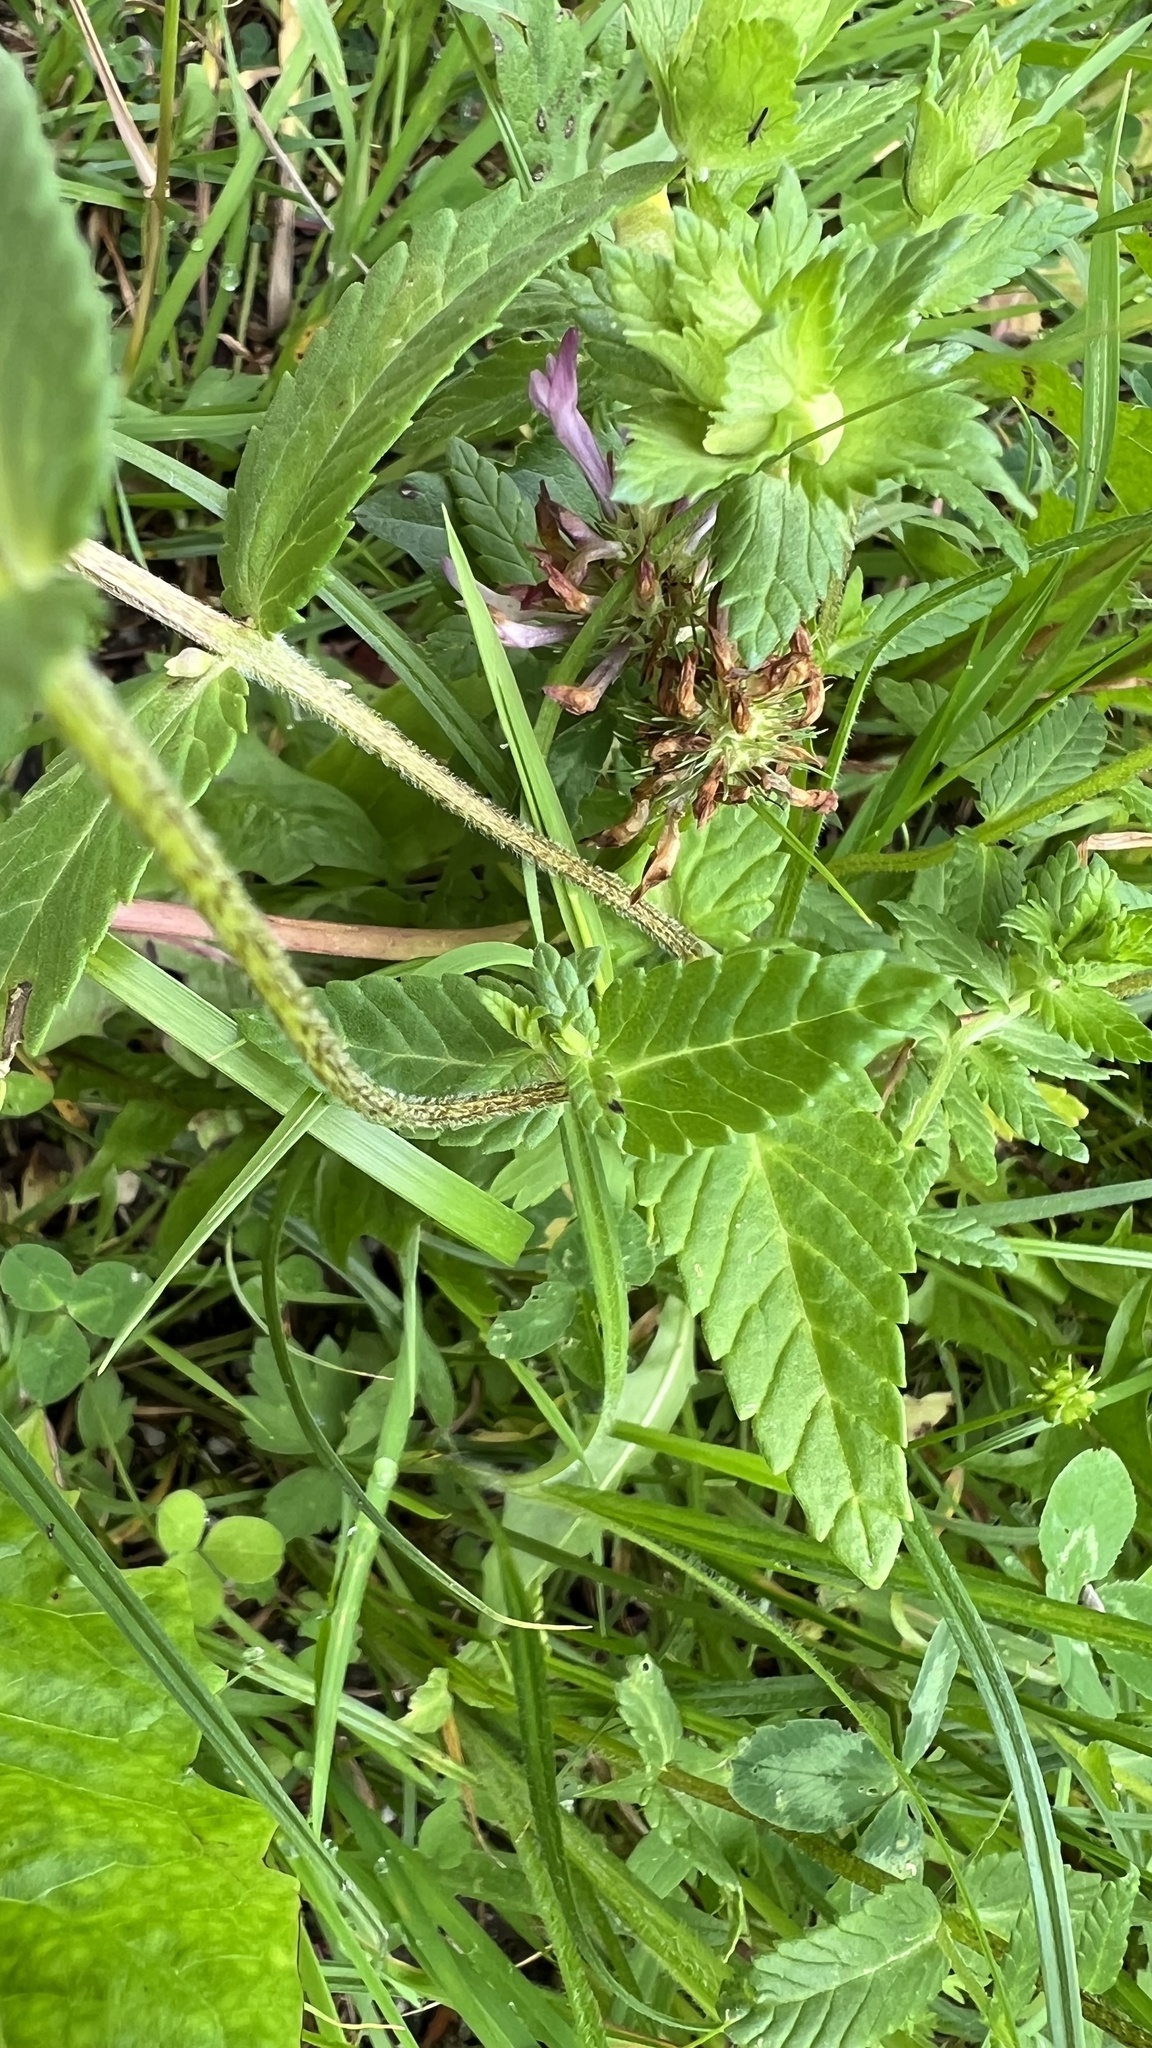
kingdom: Plantae
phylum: Tracheophyta
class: Magnoliopsida
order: Lamiales
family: Orobanchaceae
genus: Rhinanthus
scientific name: Rhinanthus freynii
